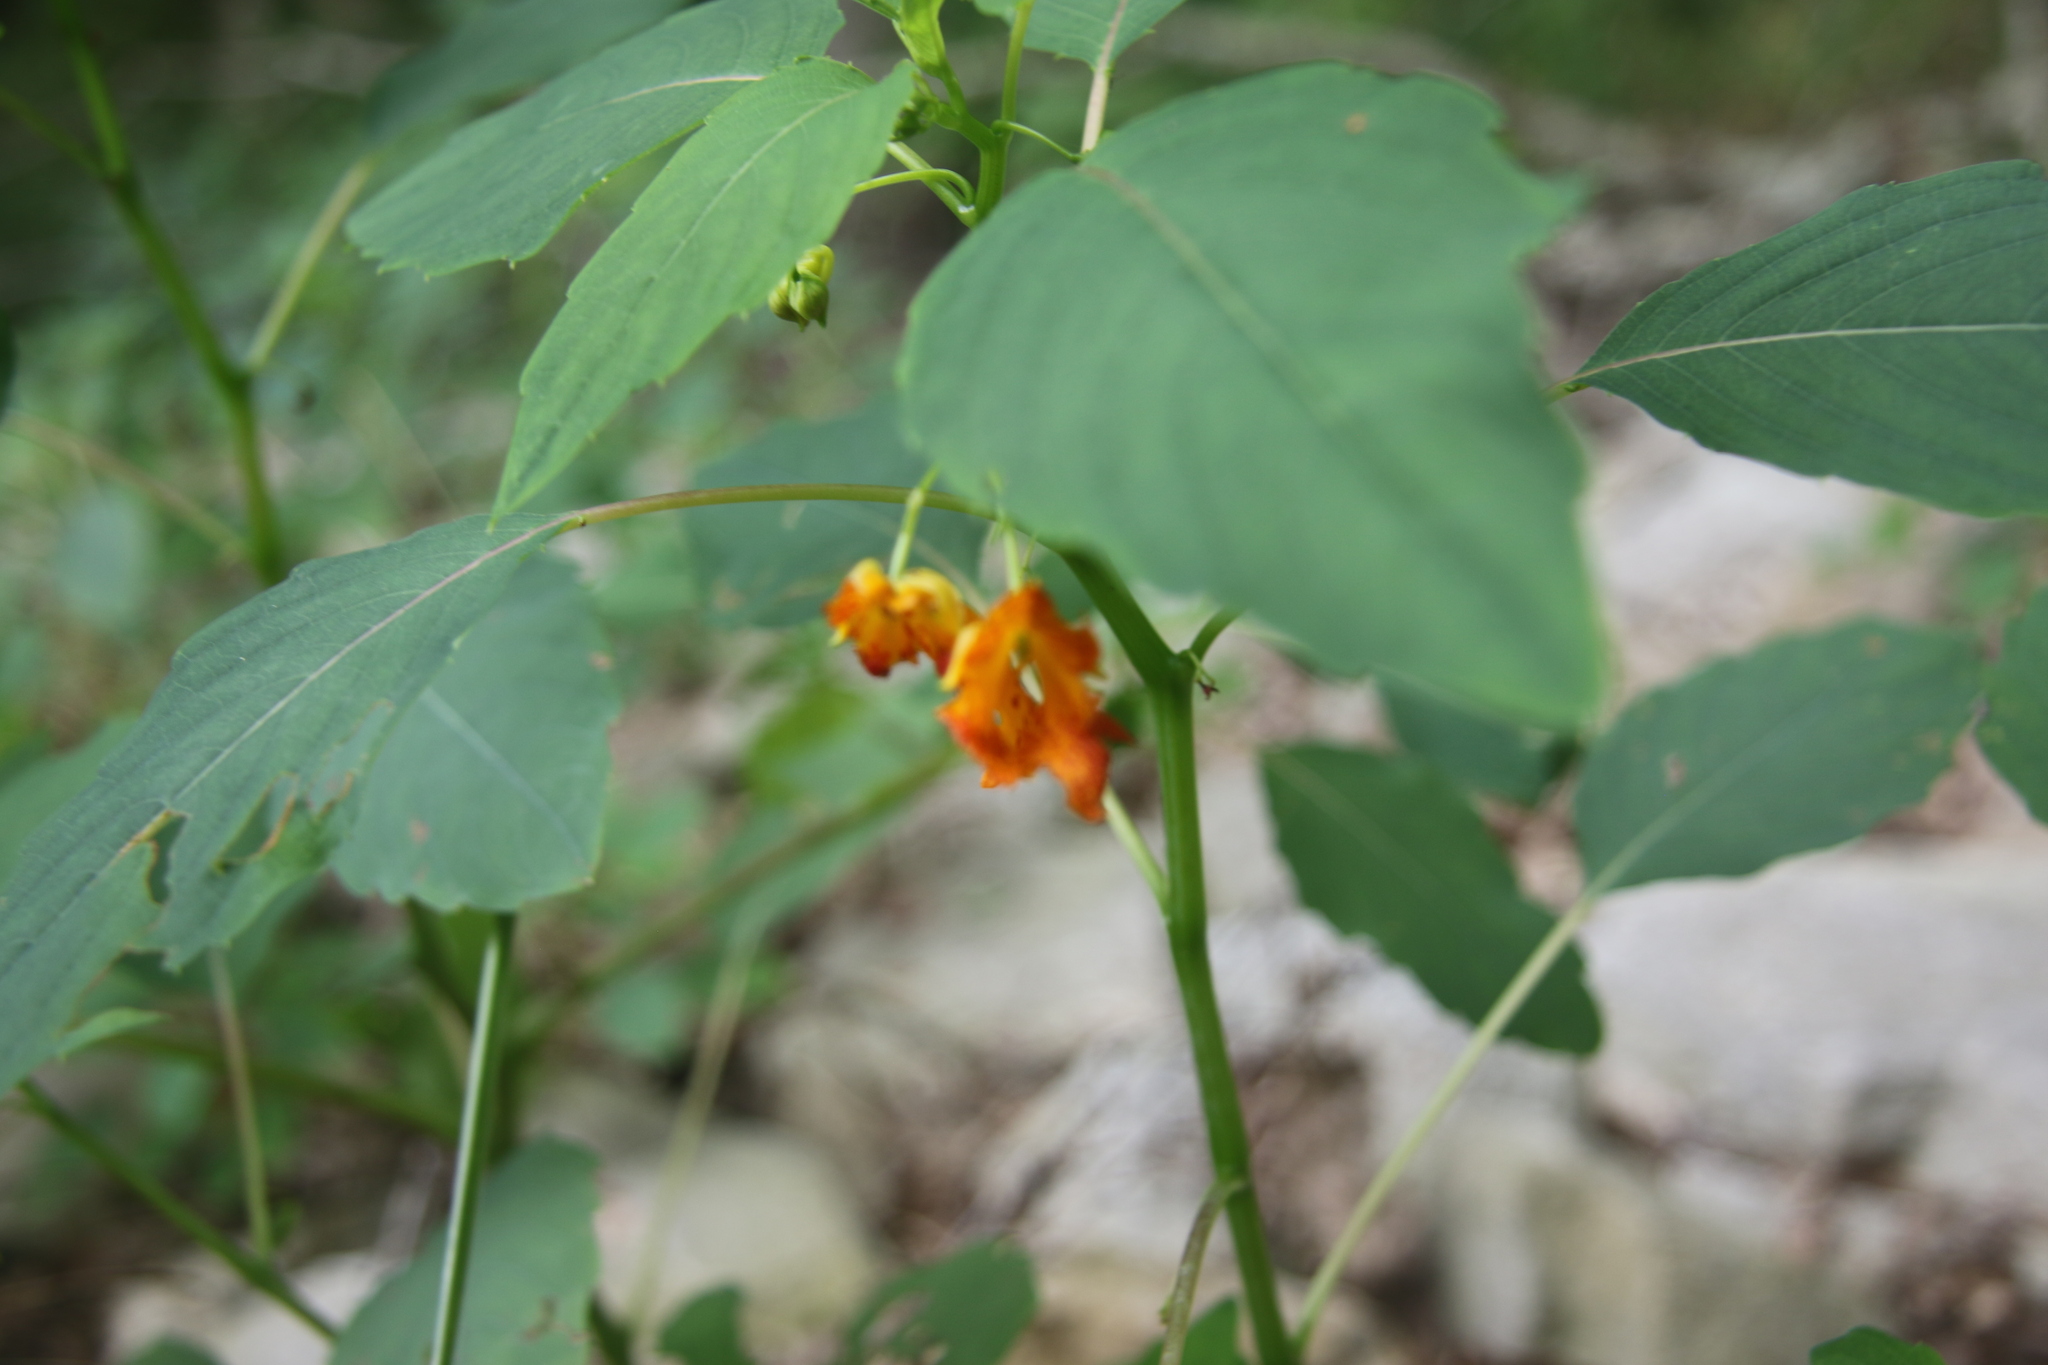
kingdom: Plantae
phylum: Tracheophyta
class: Magnoliopsida
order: Ericales
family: Balsaminaceae
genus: Impatiens
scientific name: Impatiens capensis
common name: Orange balsam
